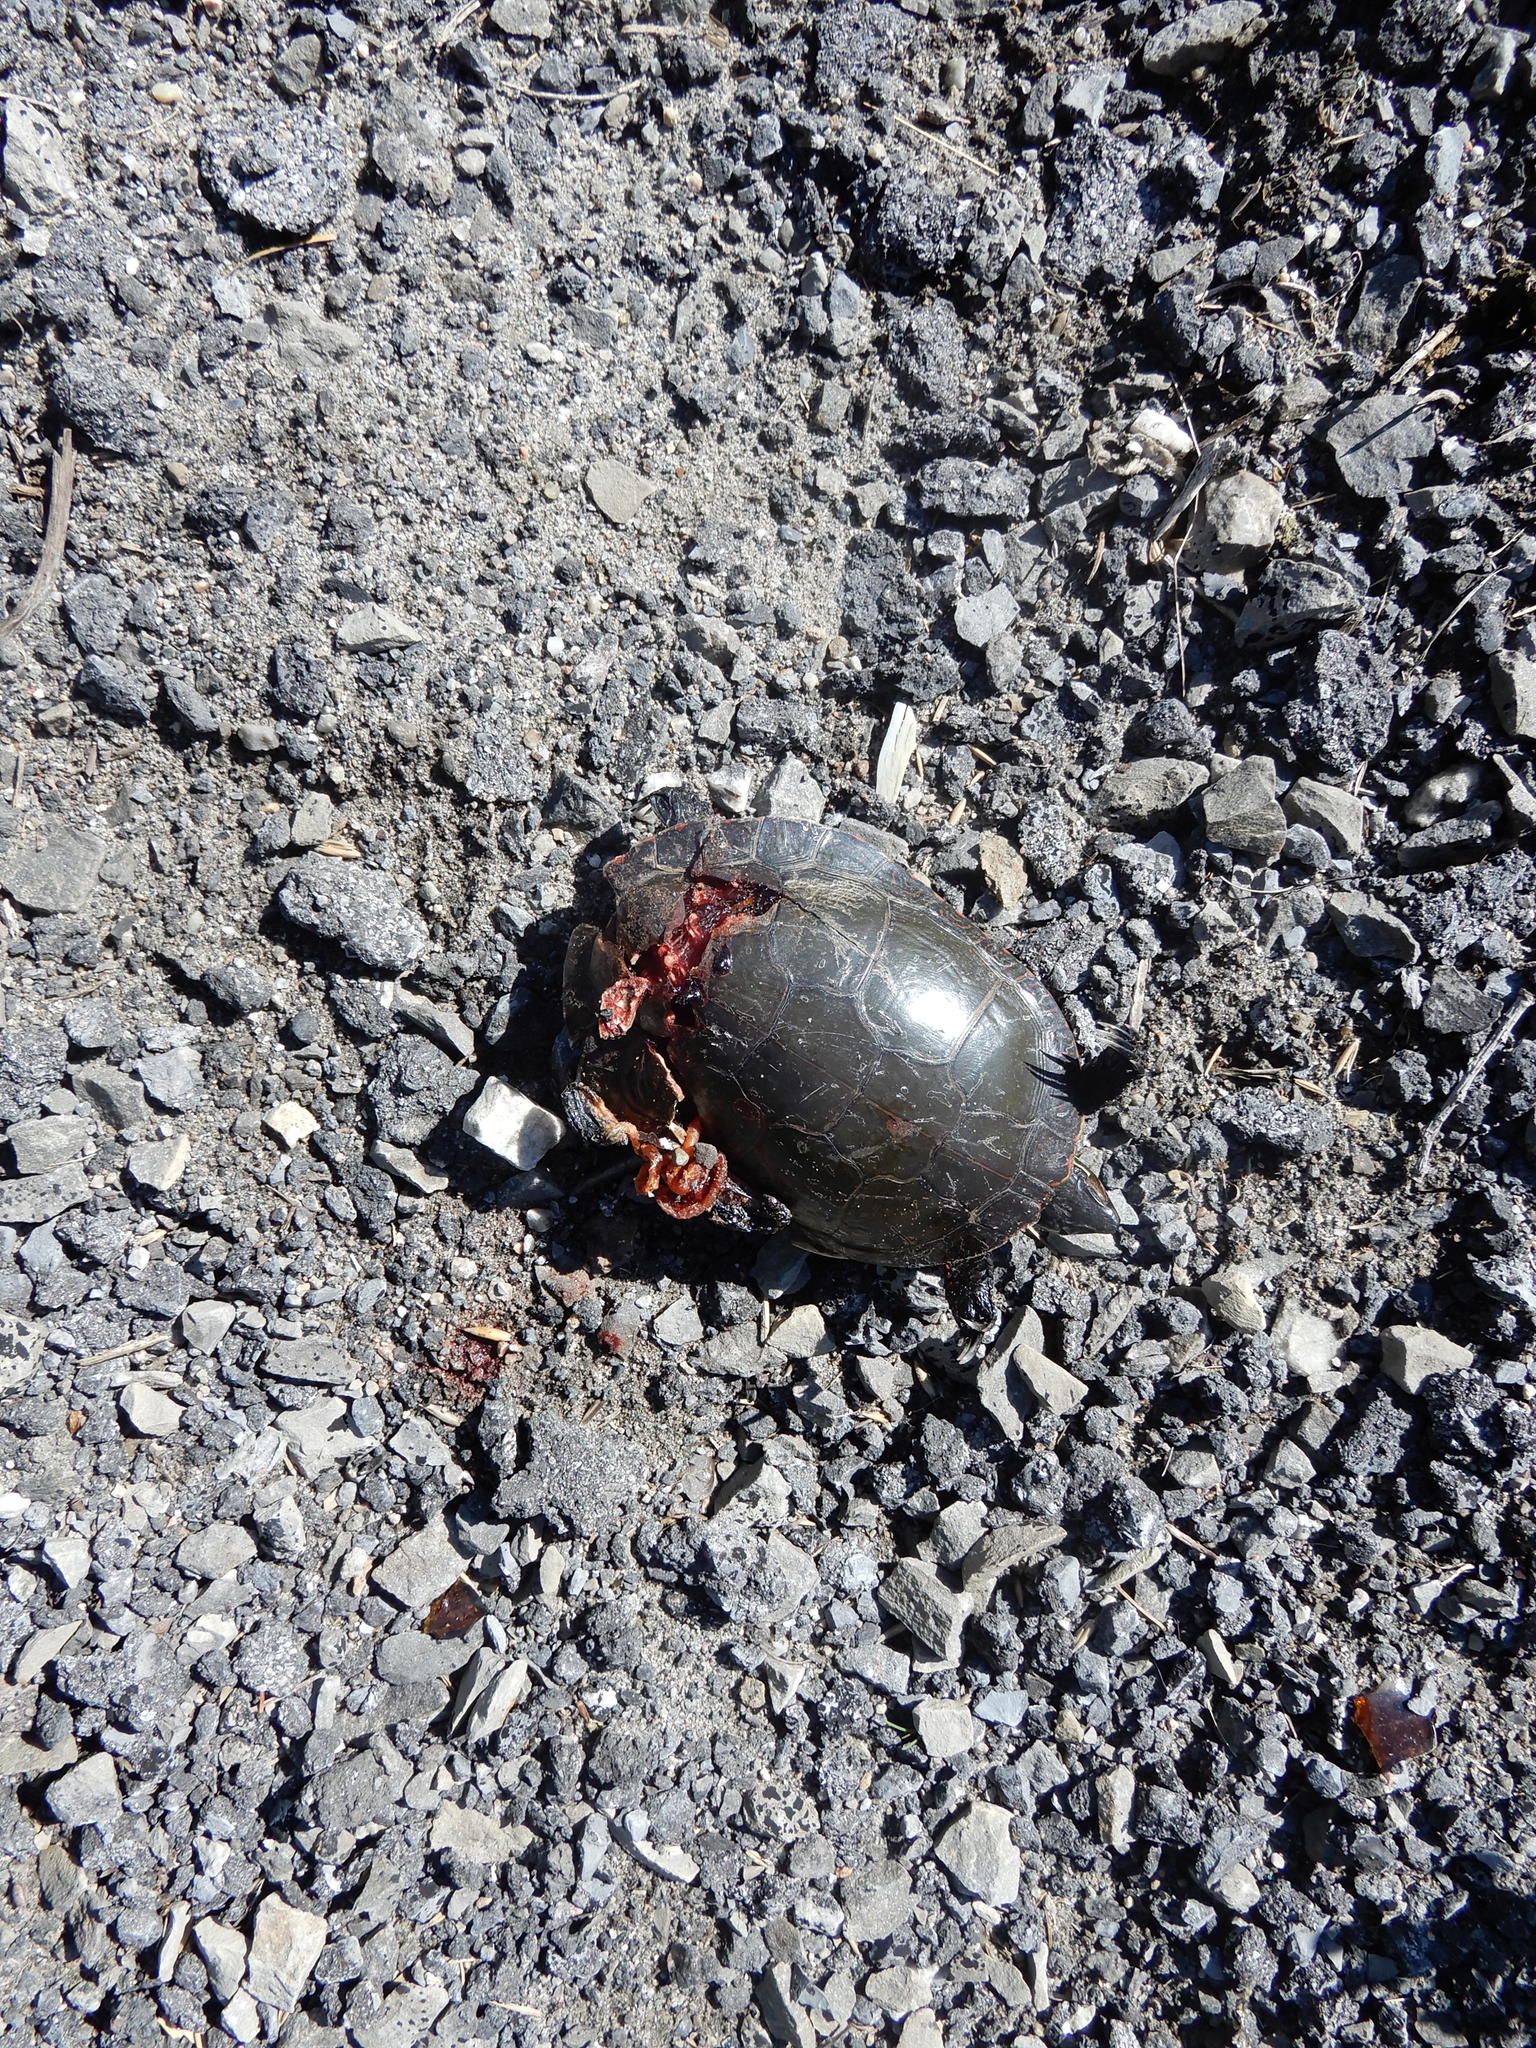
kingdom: Animalia
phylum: Chordata
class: Testudines
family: Emydidae
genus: Chrysemys
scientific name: Chrysemys picta
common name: Painted turtle
